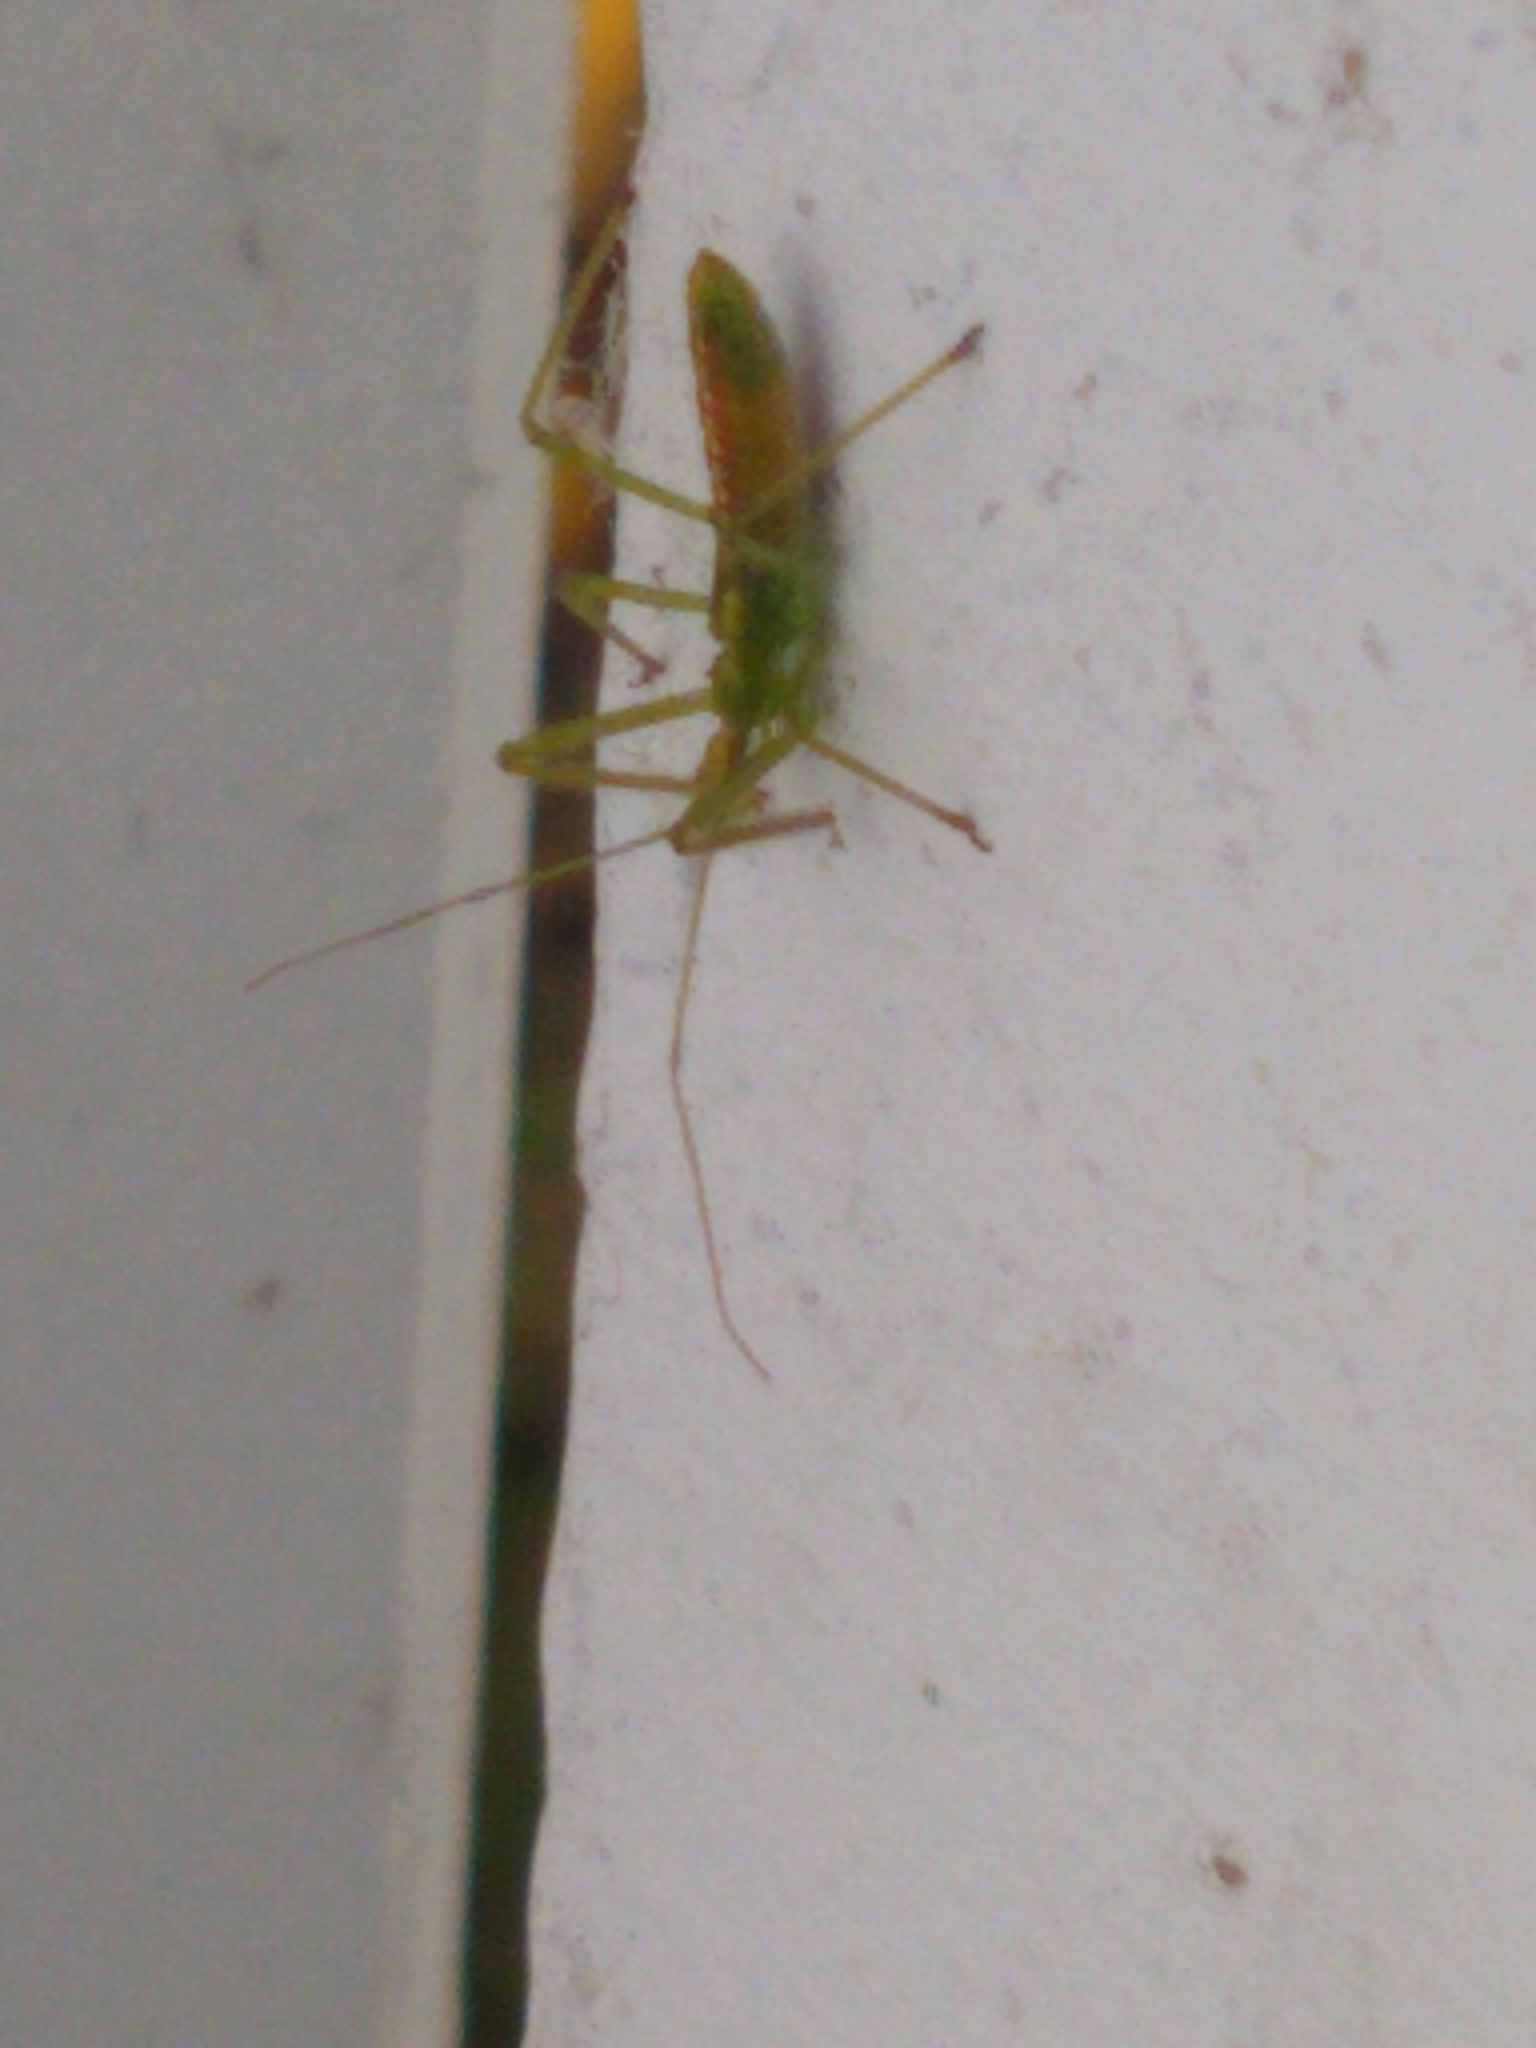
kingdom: Animalia
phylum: Arthropoda
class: Insecta
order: Hemiptera
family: Reduviidae
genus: Zelus
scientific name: Zelus luridus
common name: Pale green assassin bug
